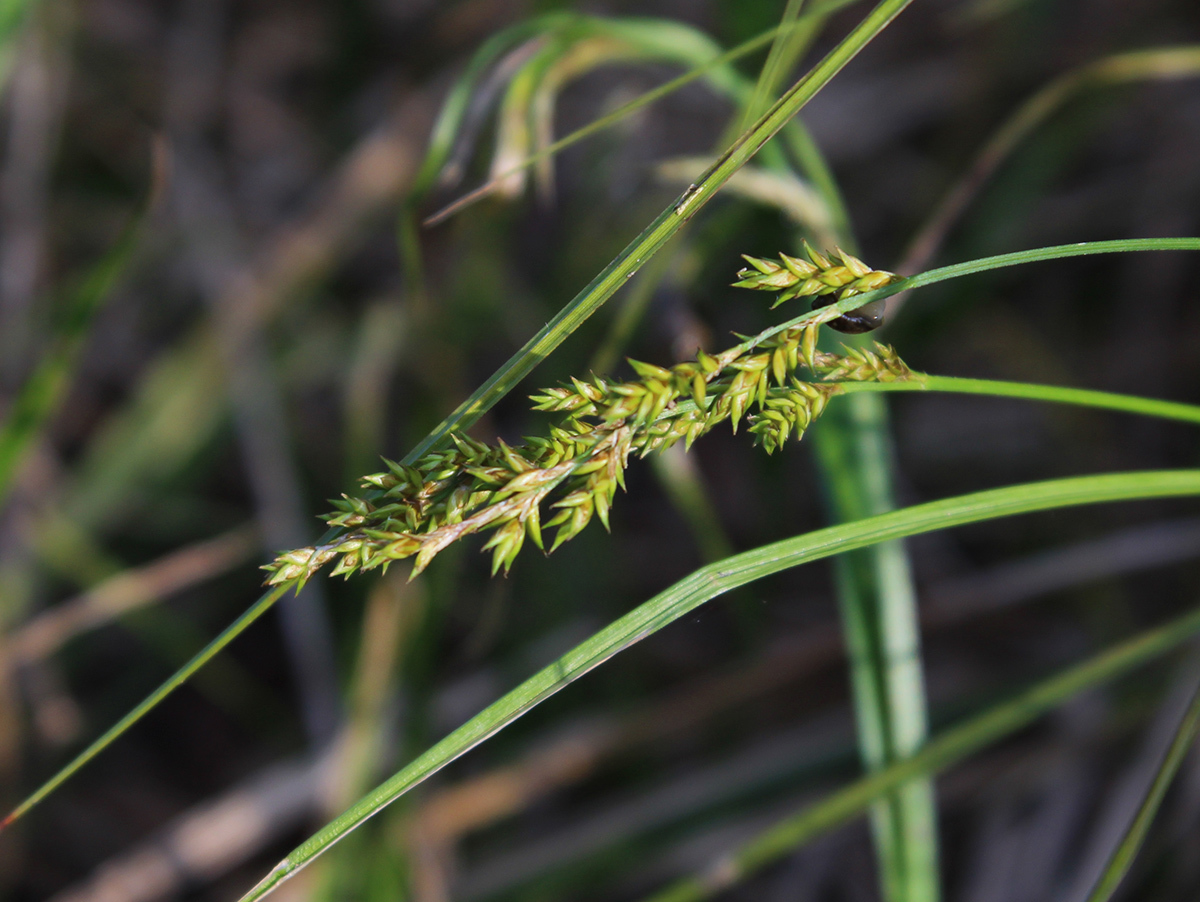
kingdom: Plantae
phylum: Tracheophyta
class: Liliopsida
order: Poales
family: Cyperaceae
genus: Carex
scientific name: Carex elongata
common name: Elongated sedge
